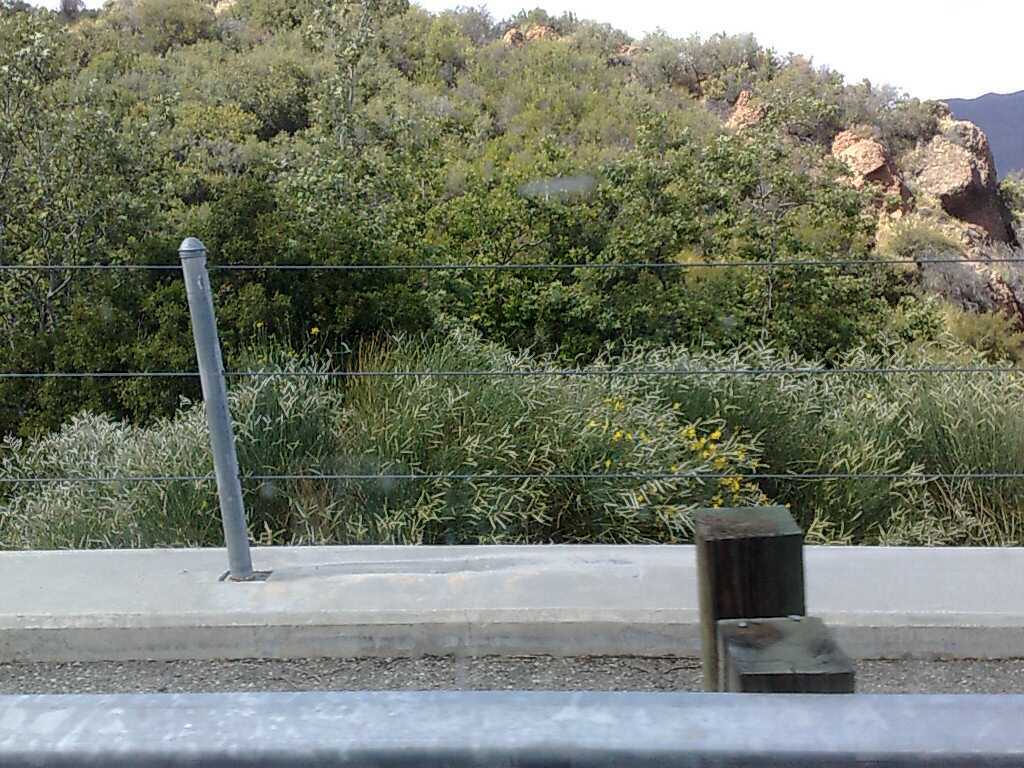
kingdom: Plantae
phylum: Tracheophyta
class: Magnoliopsida
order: Fabales
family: Fabaceae
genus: Spartium
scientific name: Spartium junceum
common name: Spanish broom
